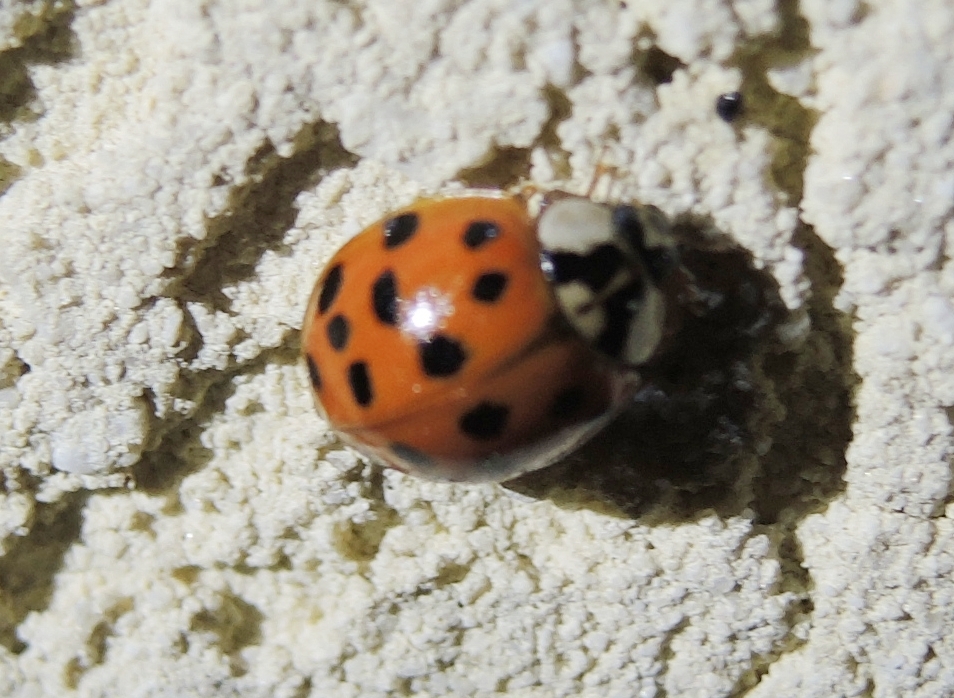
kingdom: Animalia
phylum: Arthropoda
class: Insecta
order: Coleoptera
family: Coccinellidae
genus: Harmonia
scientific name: Harmonia axyridis
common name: Harlequin ladybird
